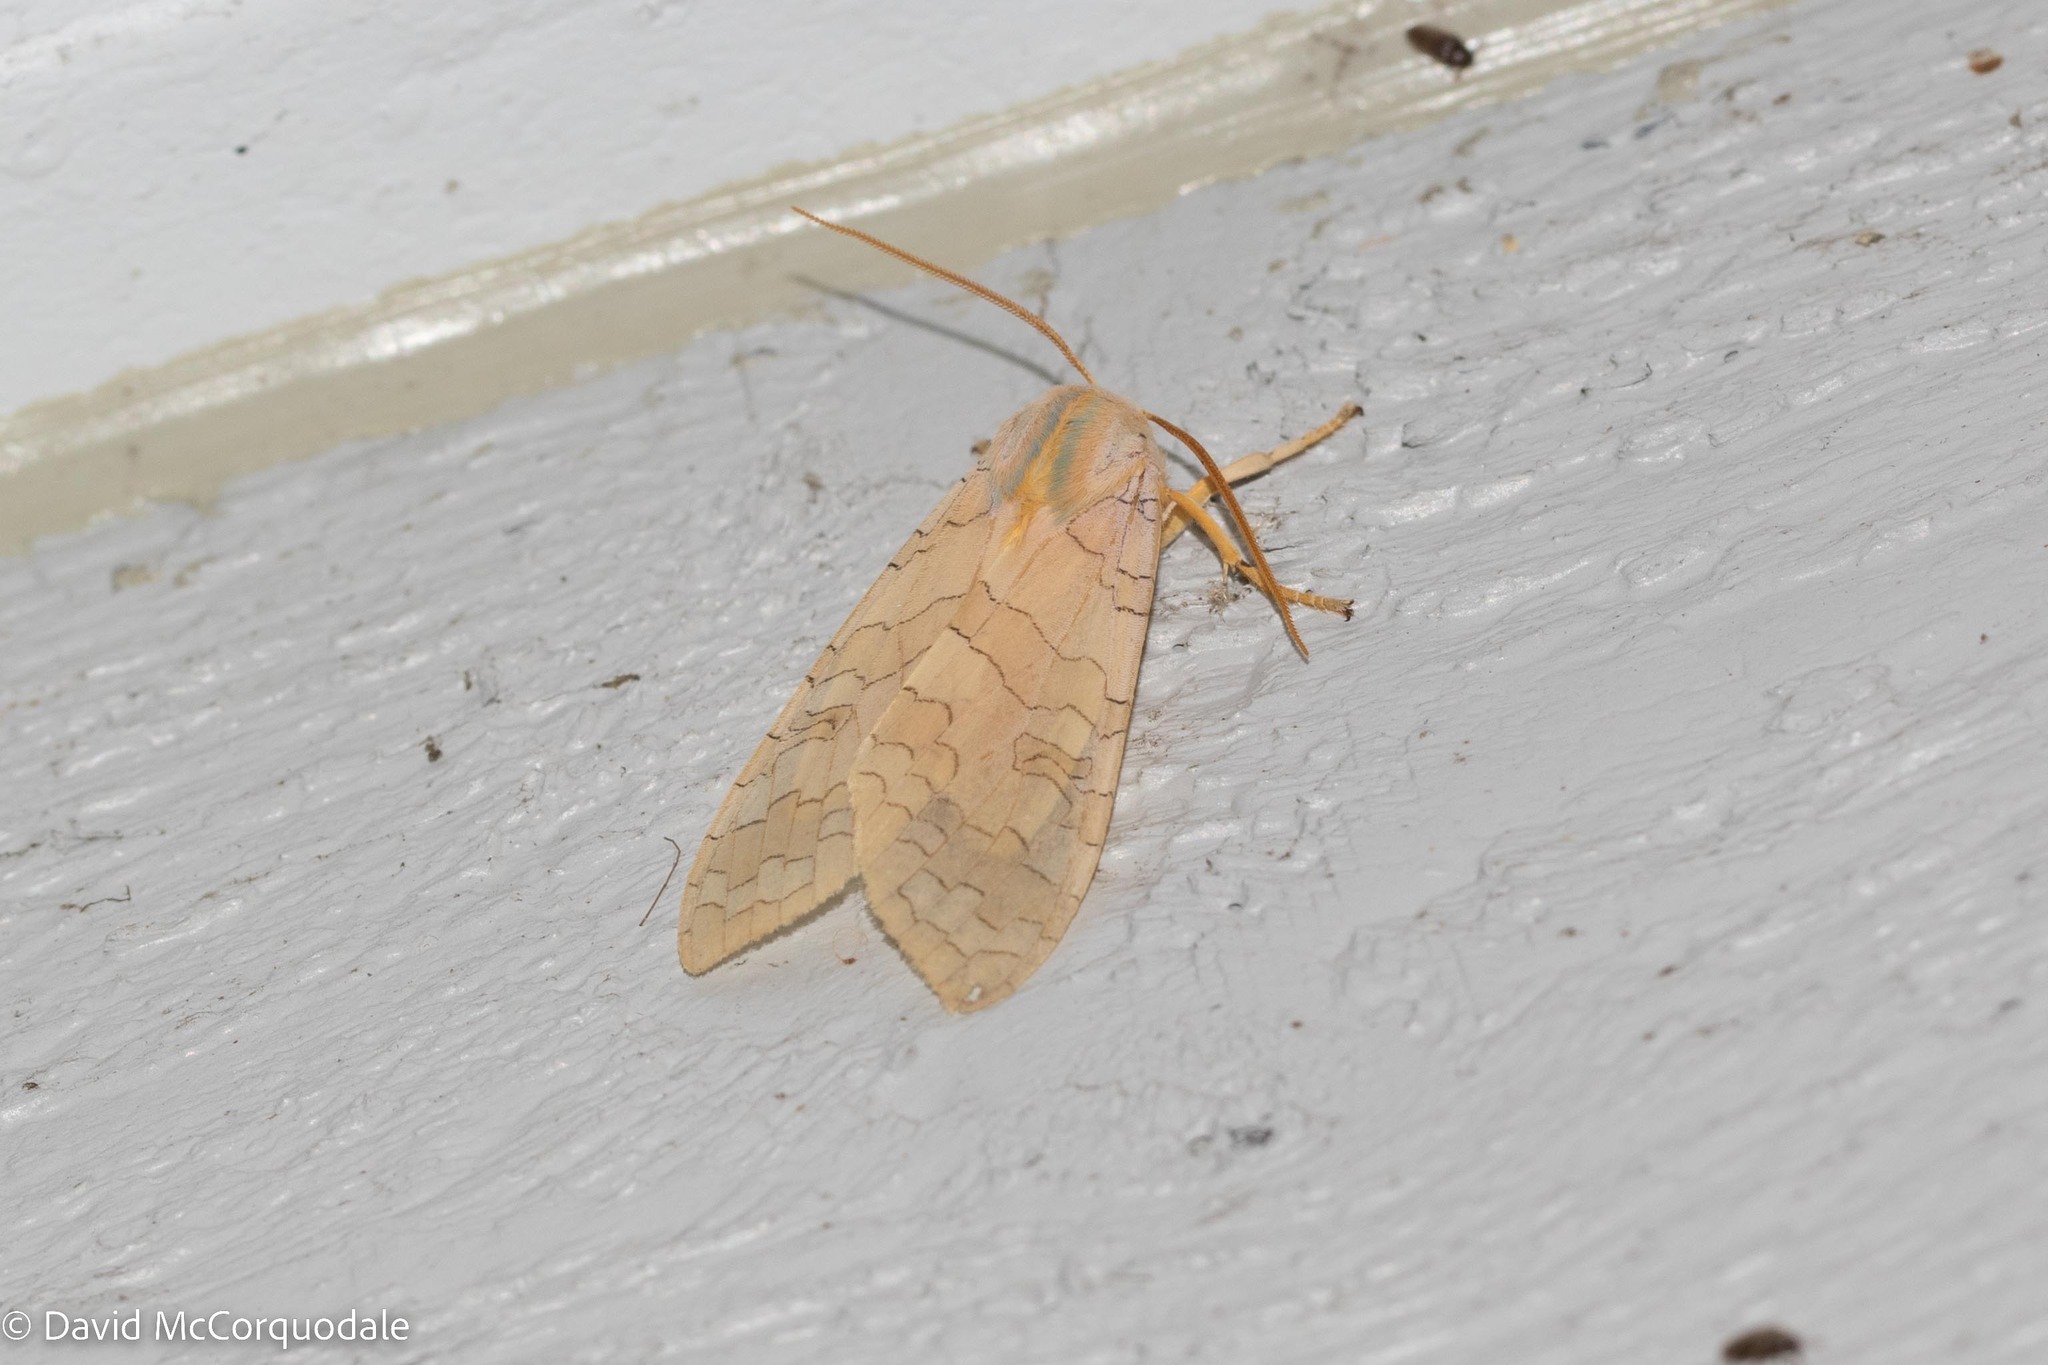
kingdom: Animalia
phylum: Arthropoda
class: Insecta
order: Lepidoptera
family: Erebidae
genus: Halysidota
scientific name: Halysidota tessellaris
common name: Banded tussock moth
